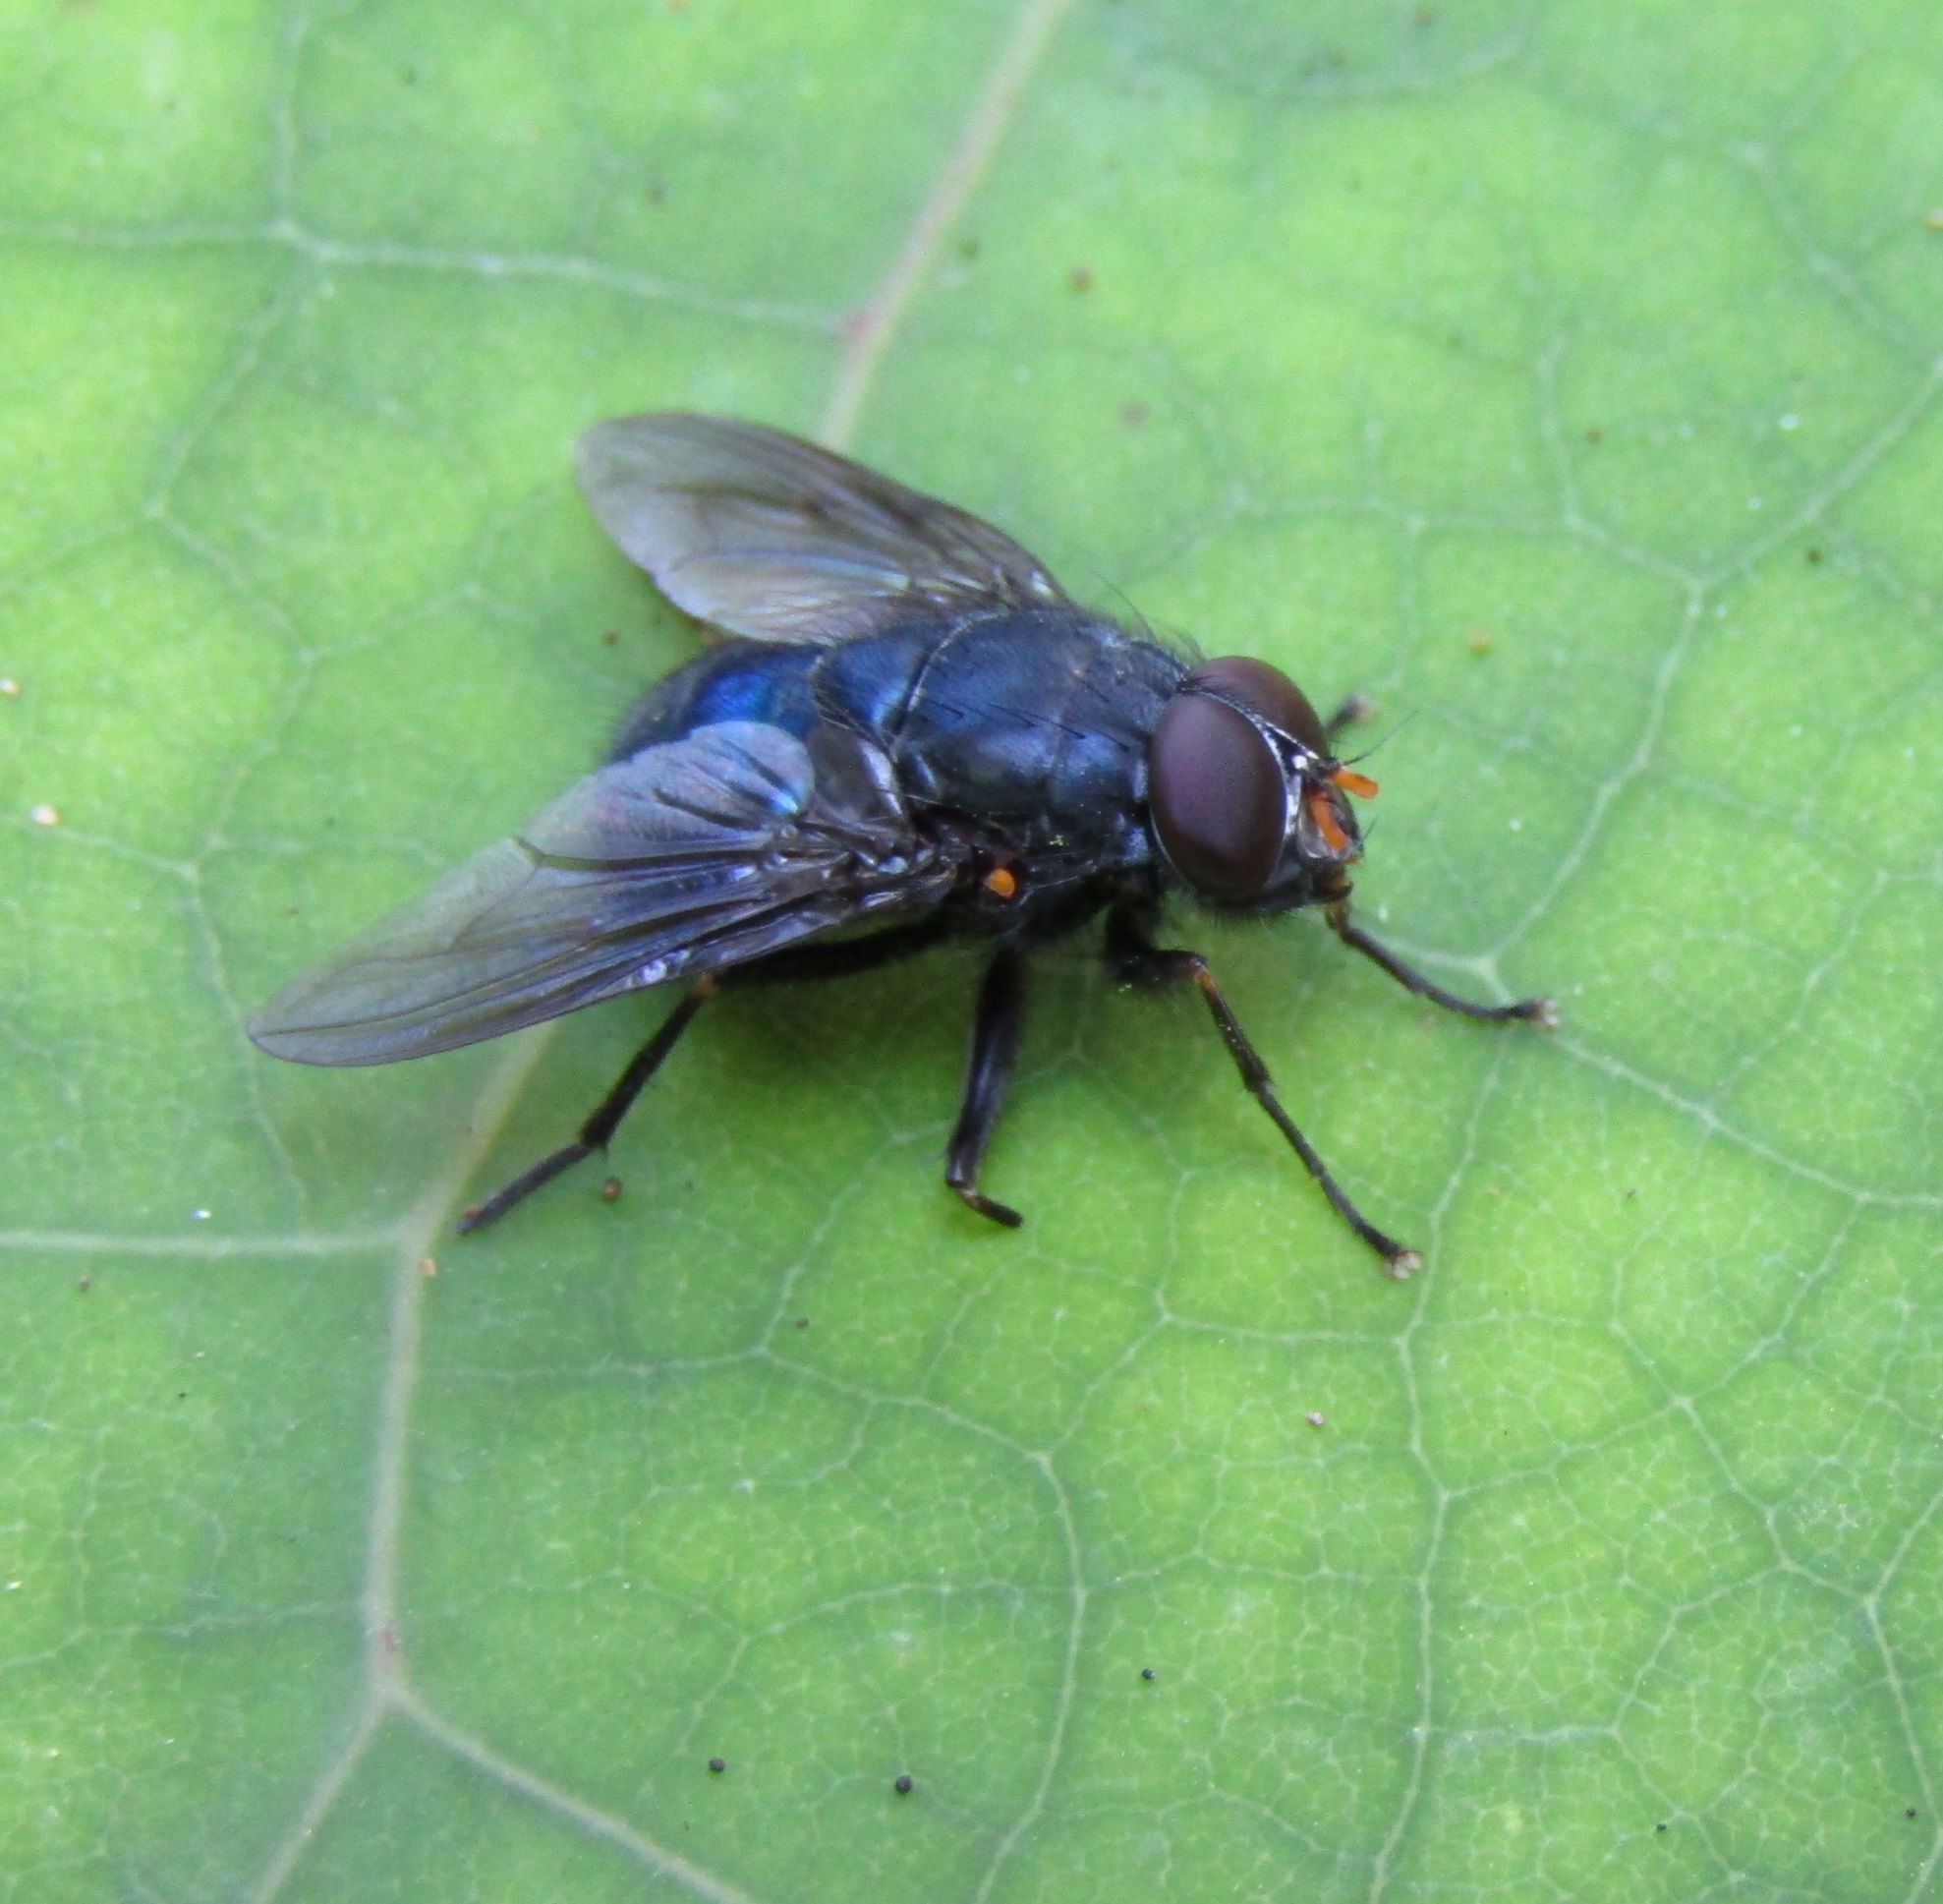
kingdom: Animalia
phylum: Arthropoda
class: Insecta
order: Diptera
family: Muscidae
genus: Calliphoroides
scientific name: Calliphoroides antennatis
